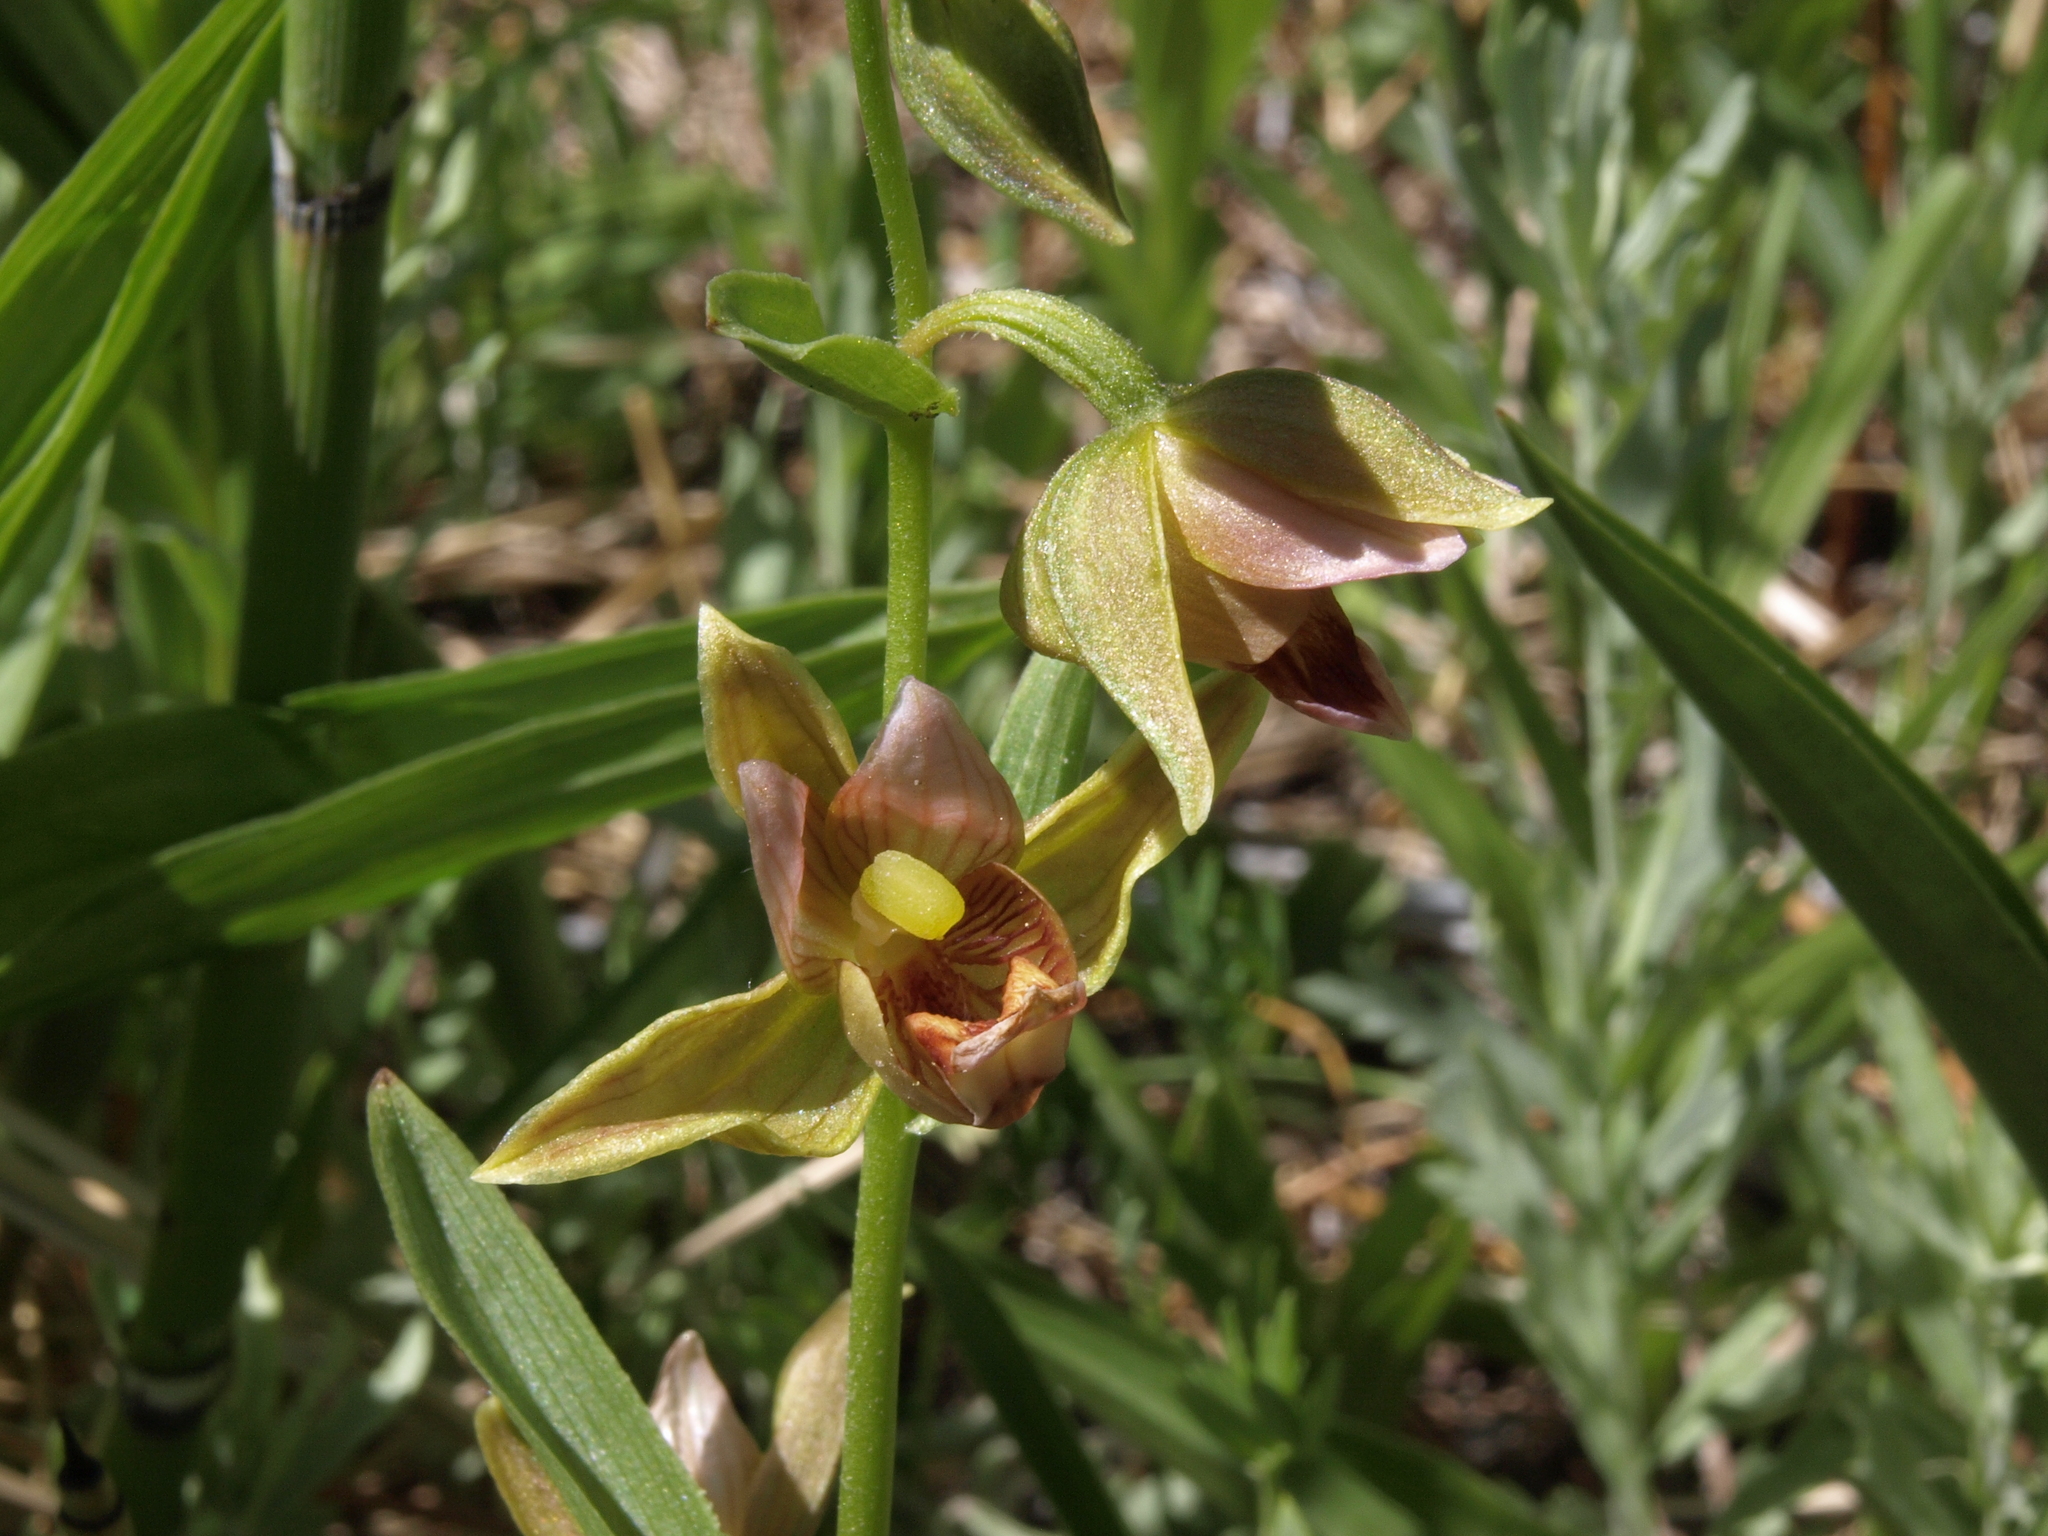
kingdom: Plantae
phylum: Tracheophyta
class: Liliopsida
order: Asparagales
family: Orchidaceae
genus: Epipactis
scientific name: Epipactis gigantea
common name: Chatterbox
